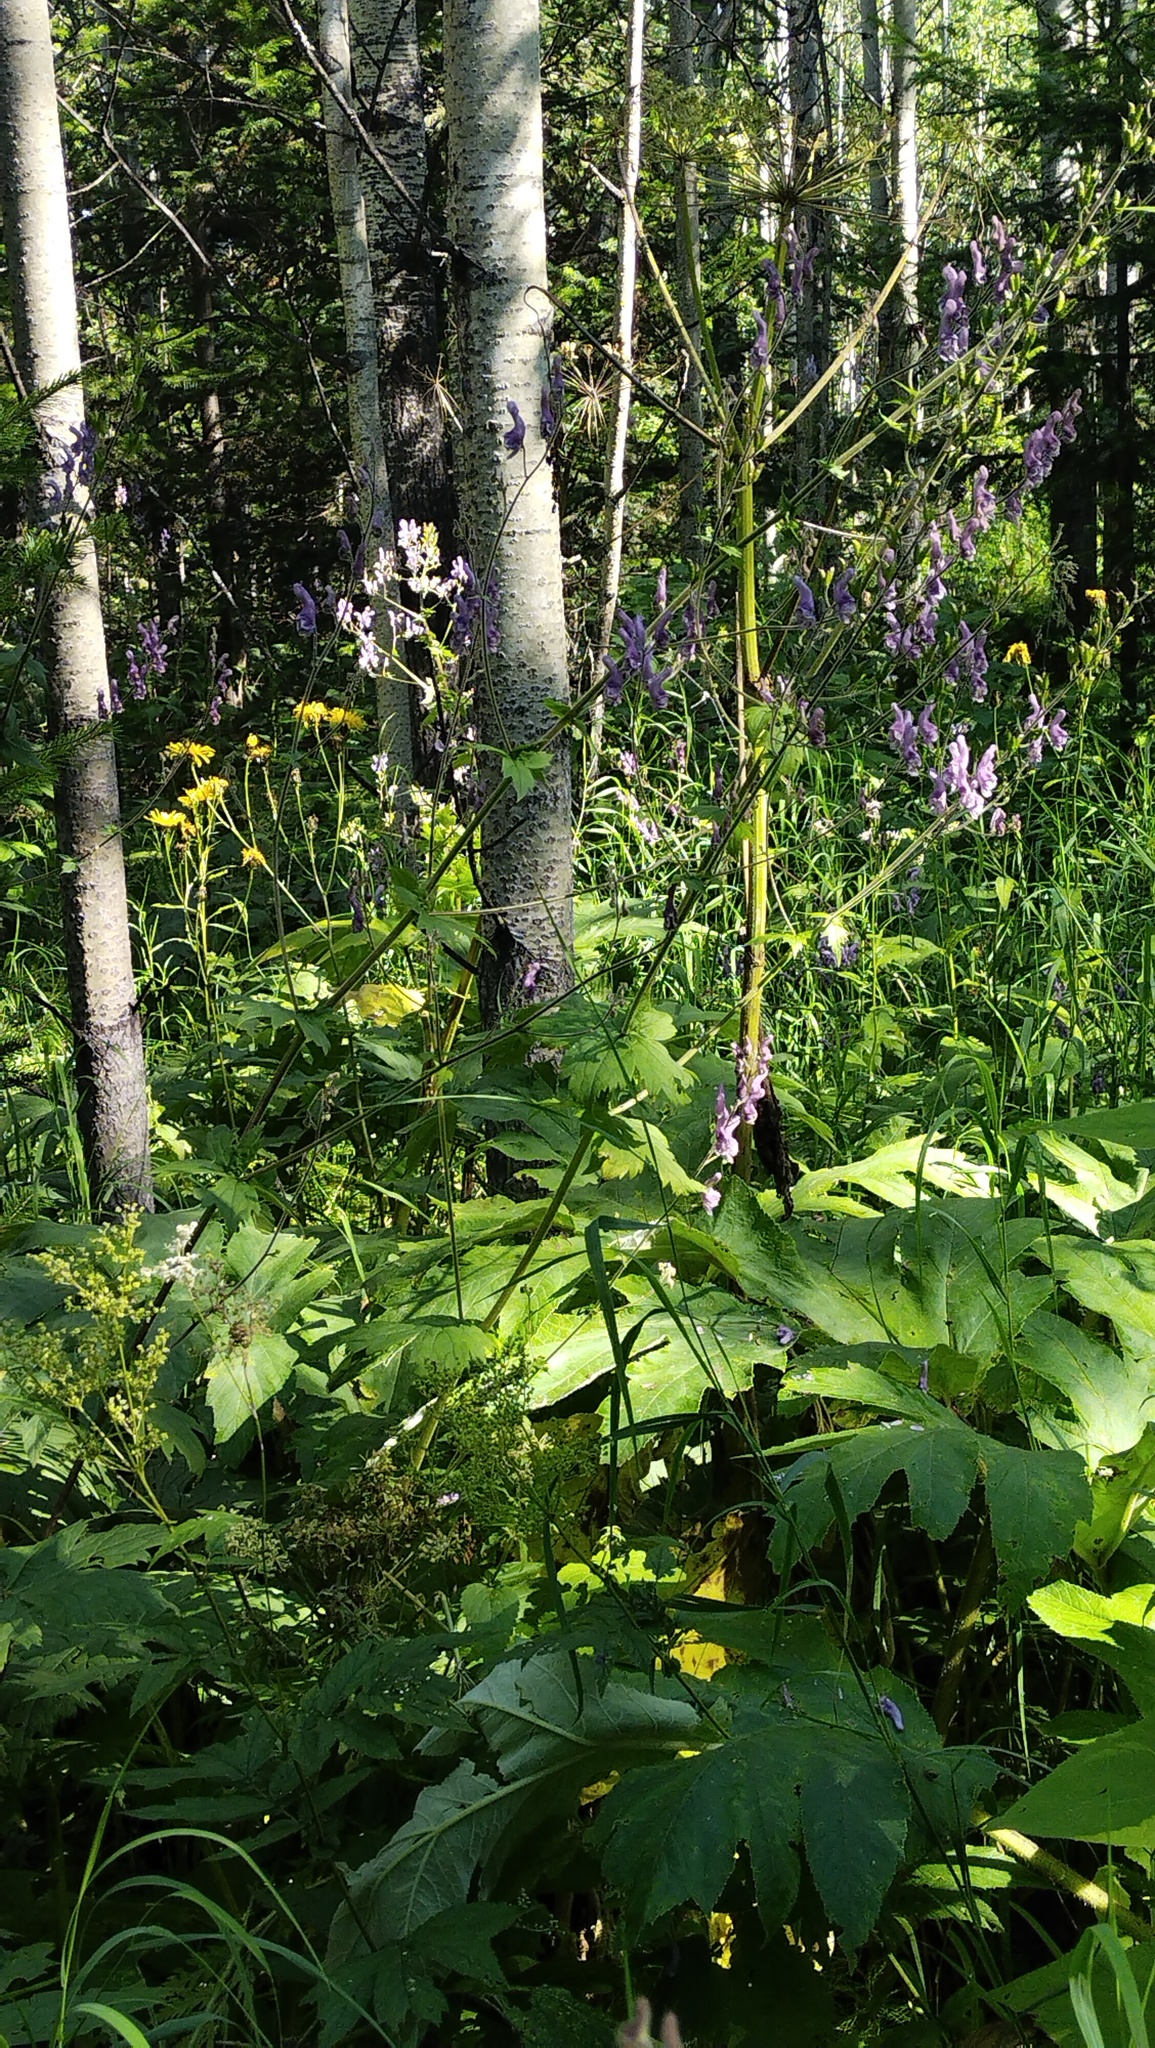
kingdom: Plantae
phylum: Tracheophyta
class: Magnoliopsida
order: Ranunculales
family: Ranunculaceae
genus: Aconitum
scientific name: Aconitum septentrionale
